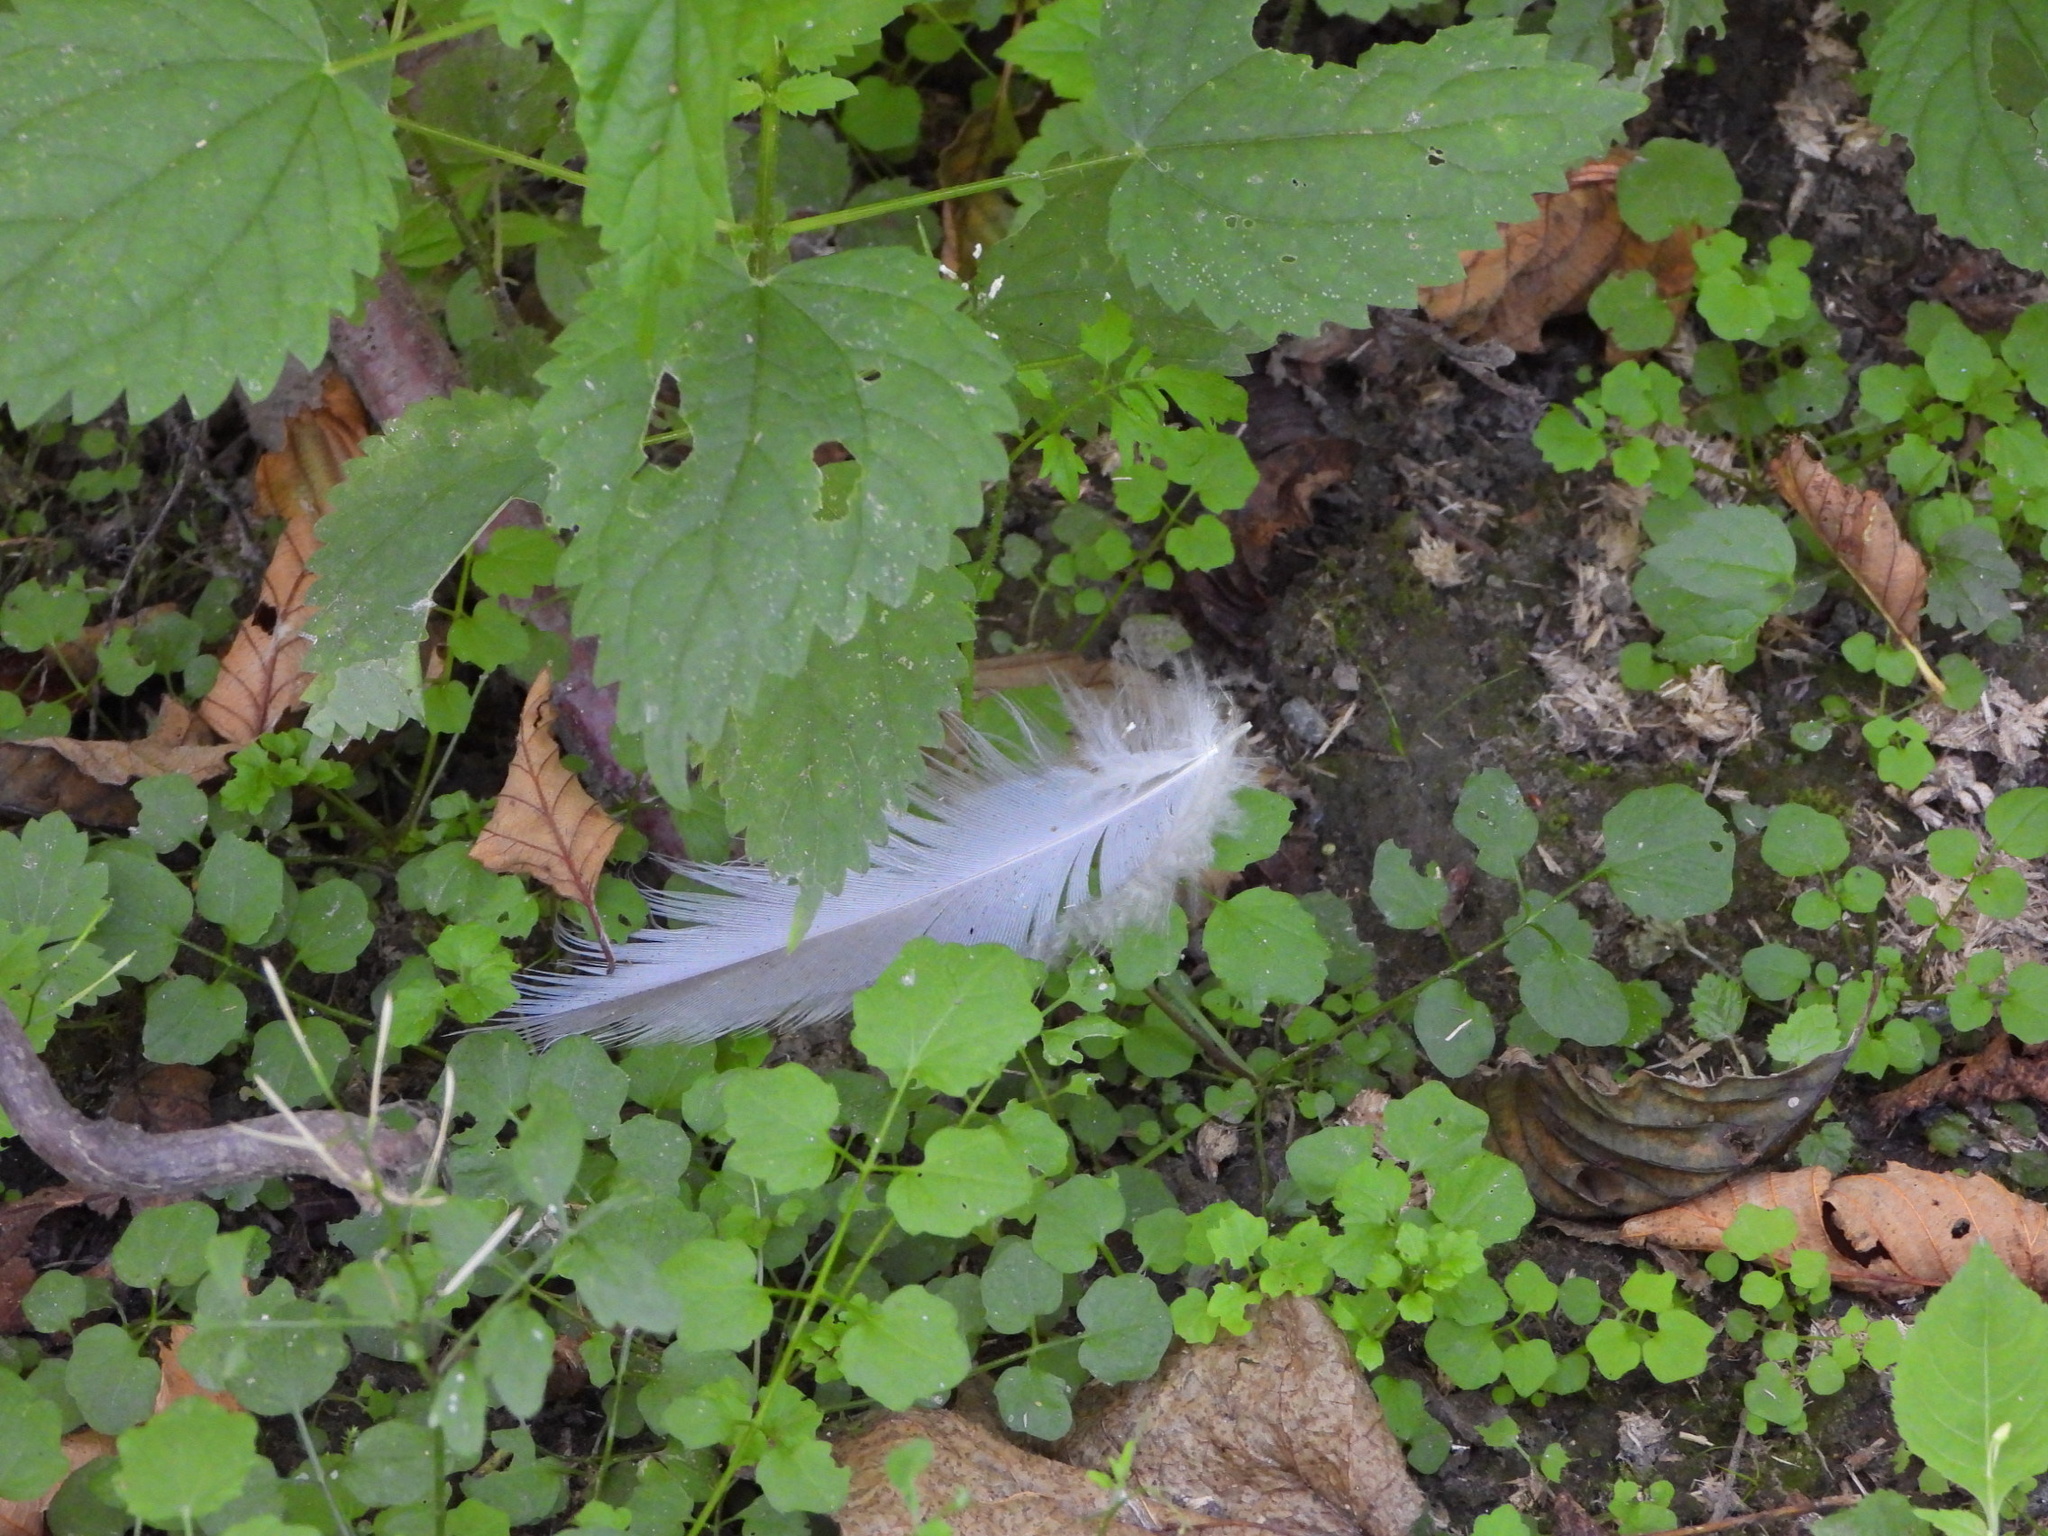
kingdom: Animalia
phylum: Chordata
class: Aves
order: Pelecaniformes
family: Ardeidae
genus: Ardea
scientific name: Ardea herodias
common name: Great blue heron
